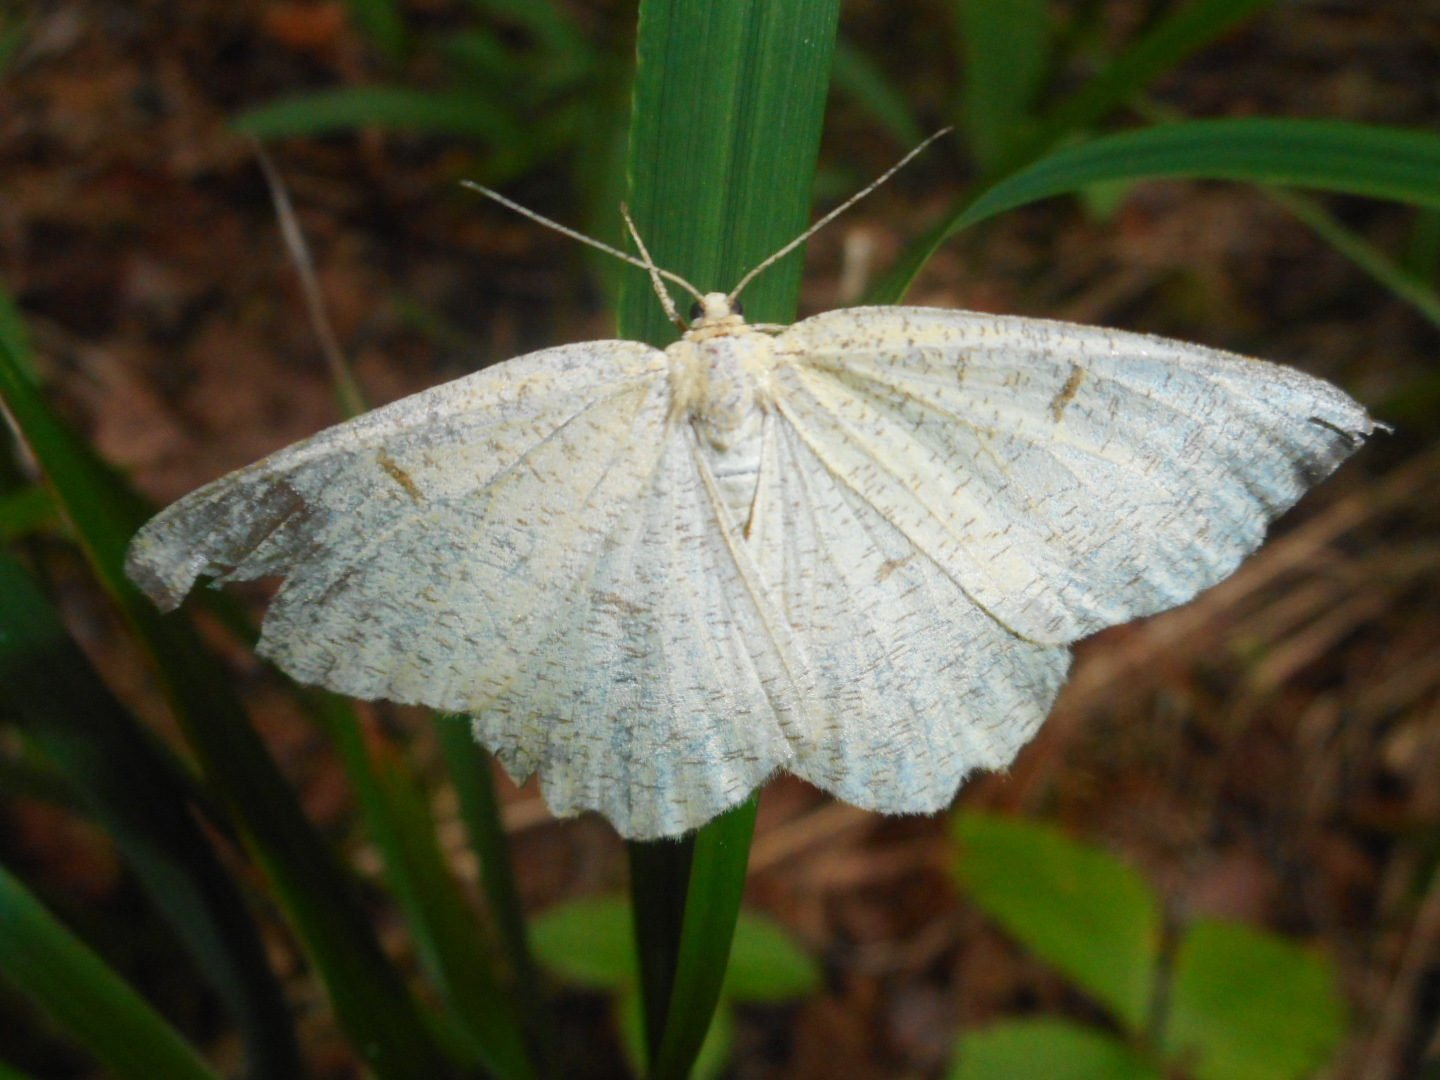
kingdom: Animalia
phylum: Arthropoda
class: Insecta
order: Lepidoptera
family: Geometridae
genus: Angerona
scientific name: Angerona prunaria
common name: Orange moth
